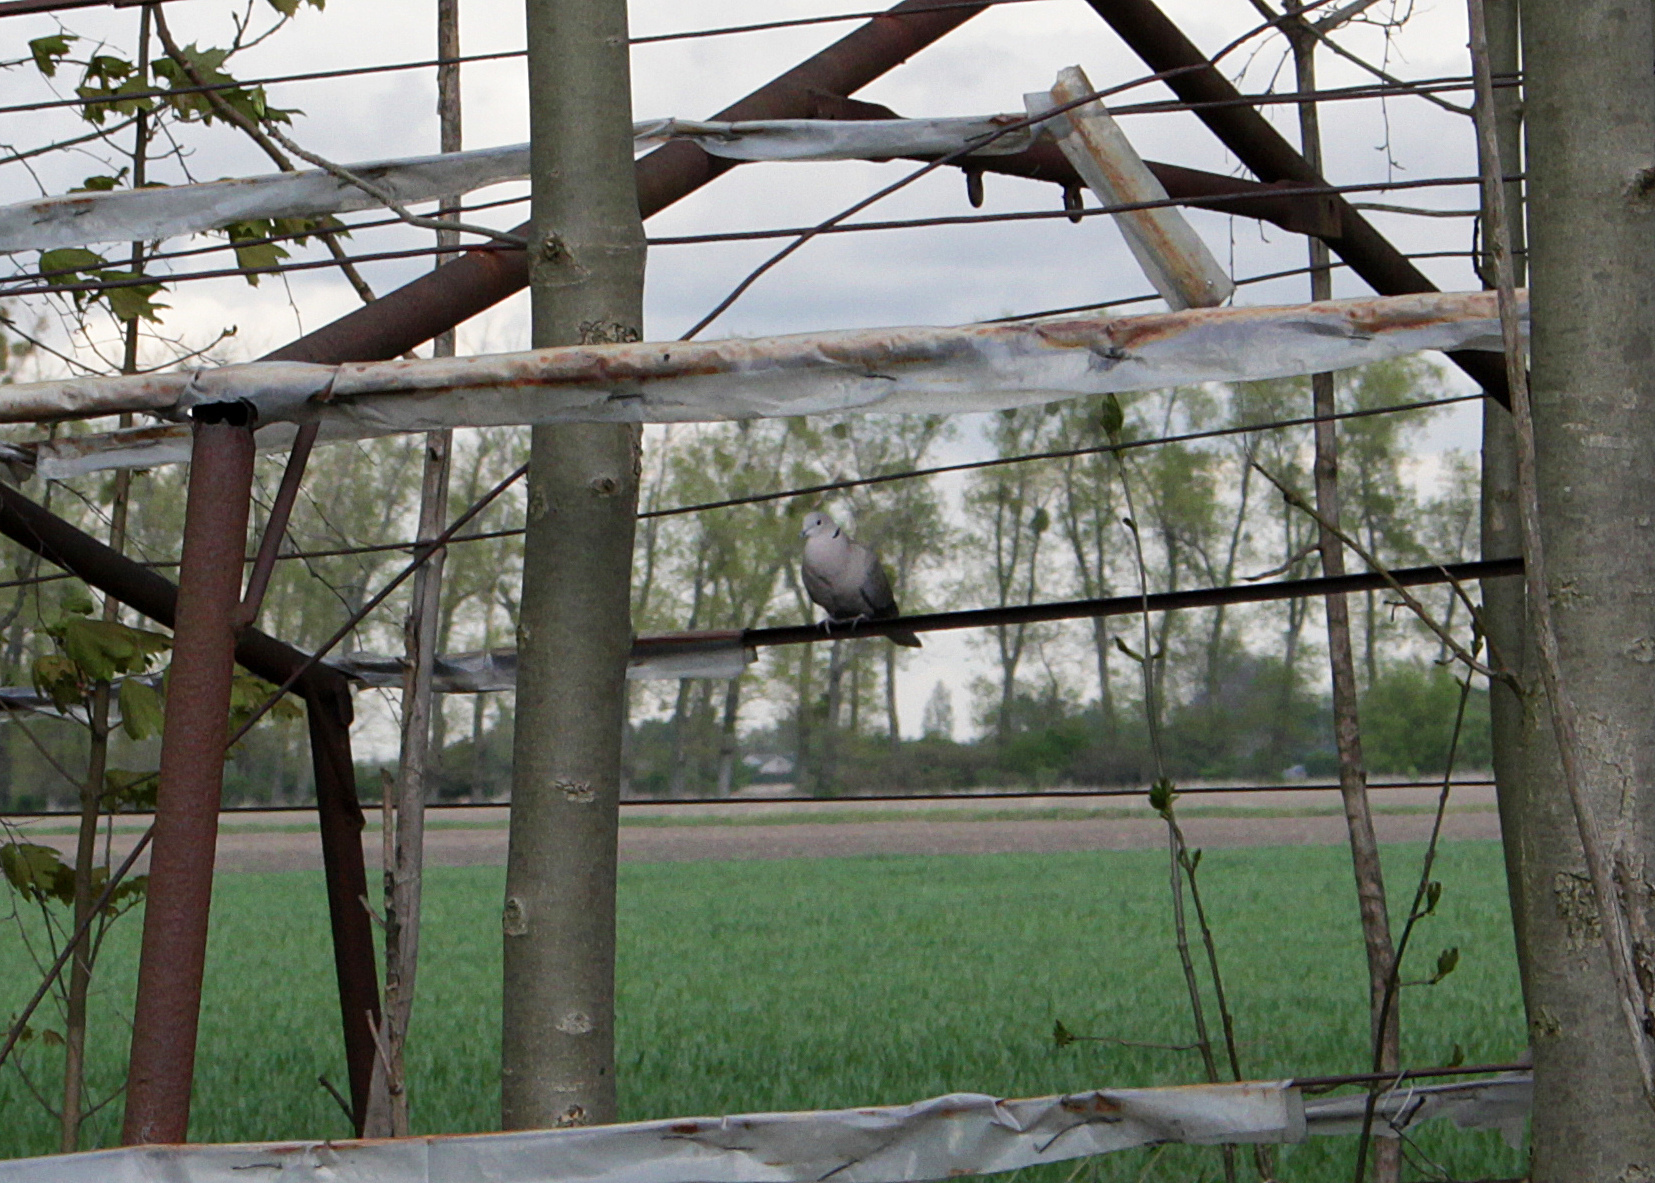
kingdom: Animalia
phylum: Chordata
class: Aves
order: Columbiformes
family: Columbidae
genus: Streptopelia
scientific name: Streptopelia decaocto
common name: Eurasian collared dove
